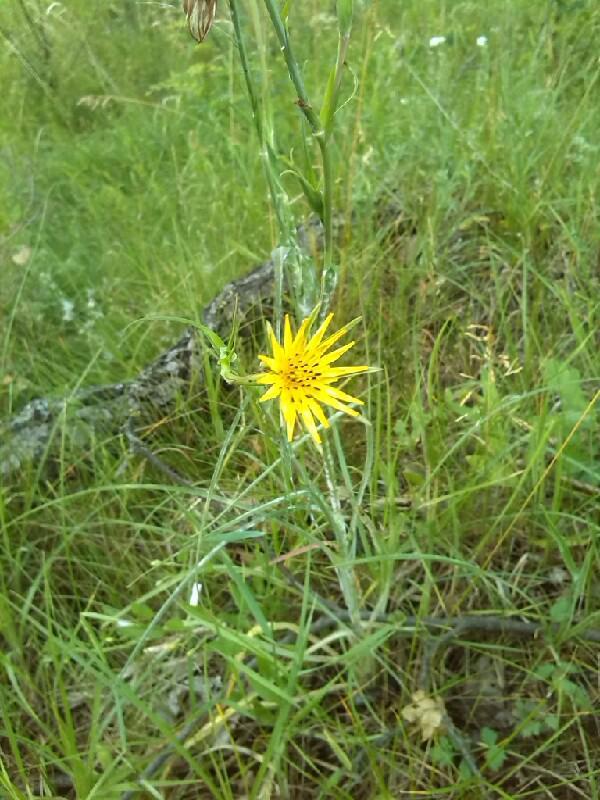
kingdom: Plantae
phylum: Tracheophyta
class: Magnoliopsida
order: Asterales
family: Asteraceae
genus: Tragopogon
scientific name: Tragopogon pratensis
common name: Goat's-beard
